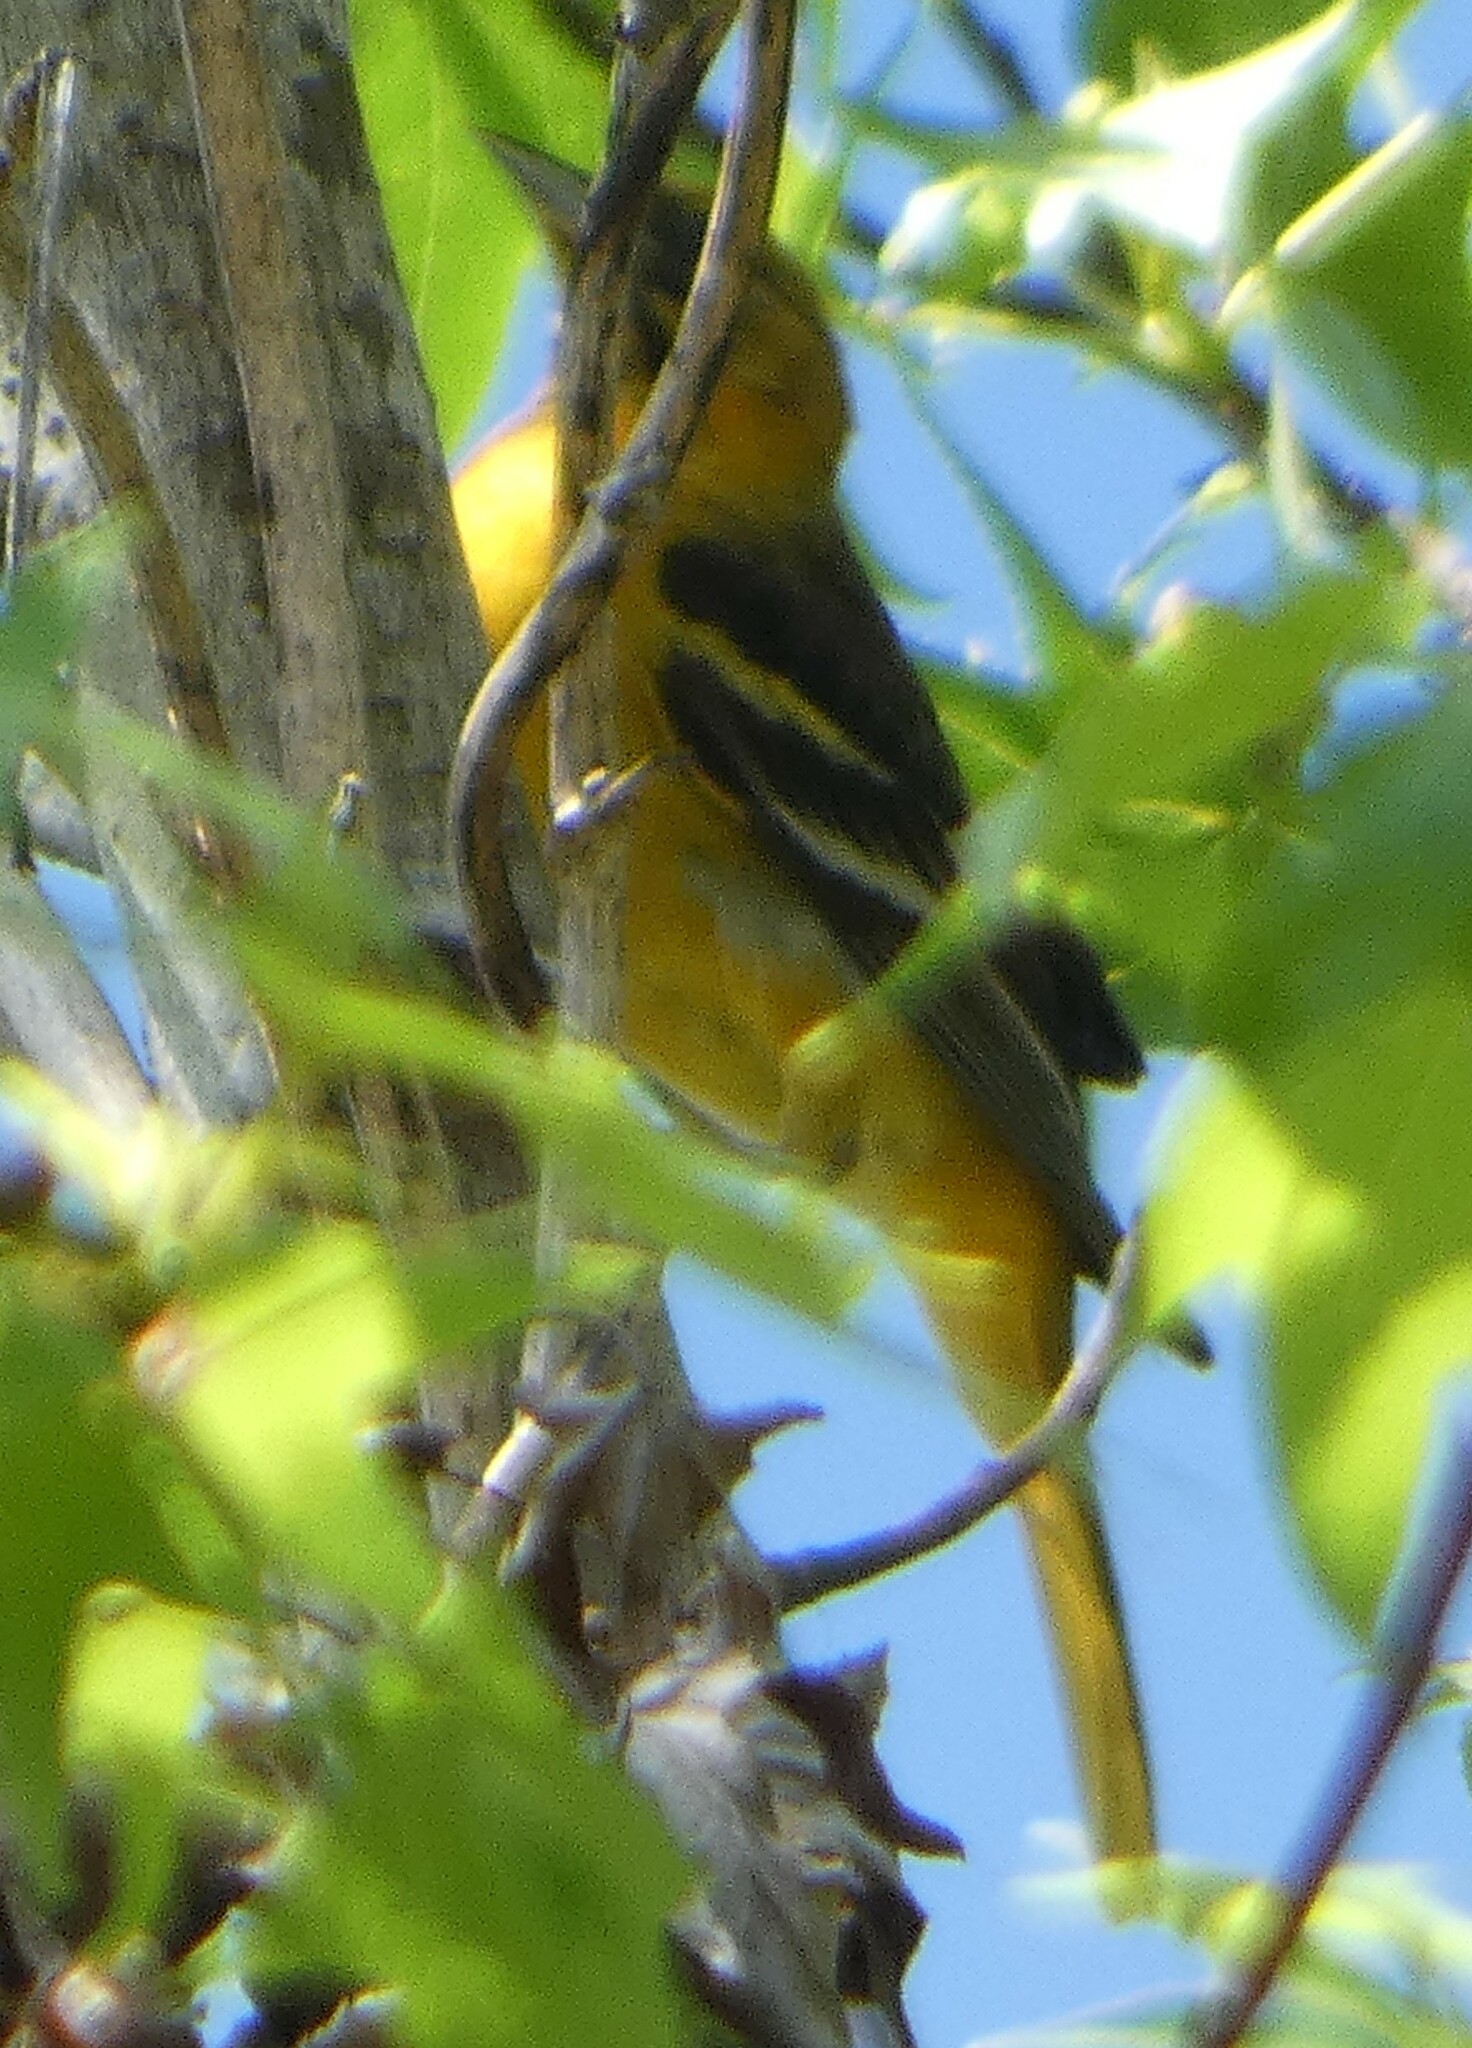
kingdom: Animalia
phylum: Chordata
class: Aves
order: Passeriformes
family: Icteridae
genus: Icterus
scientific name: Icterus galbula
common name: Baltimore oriole
